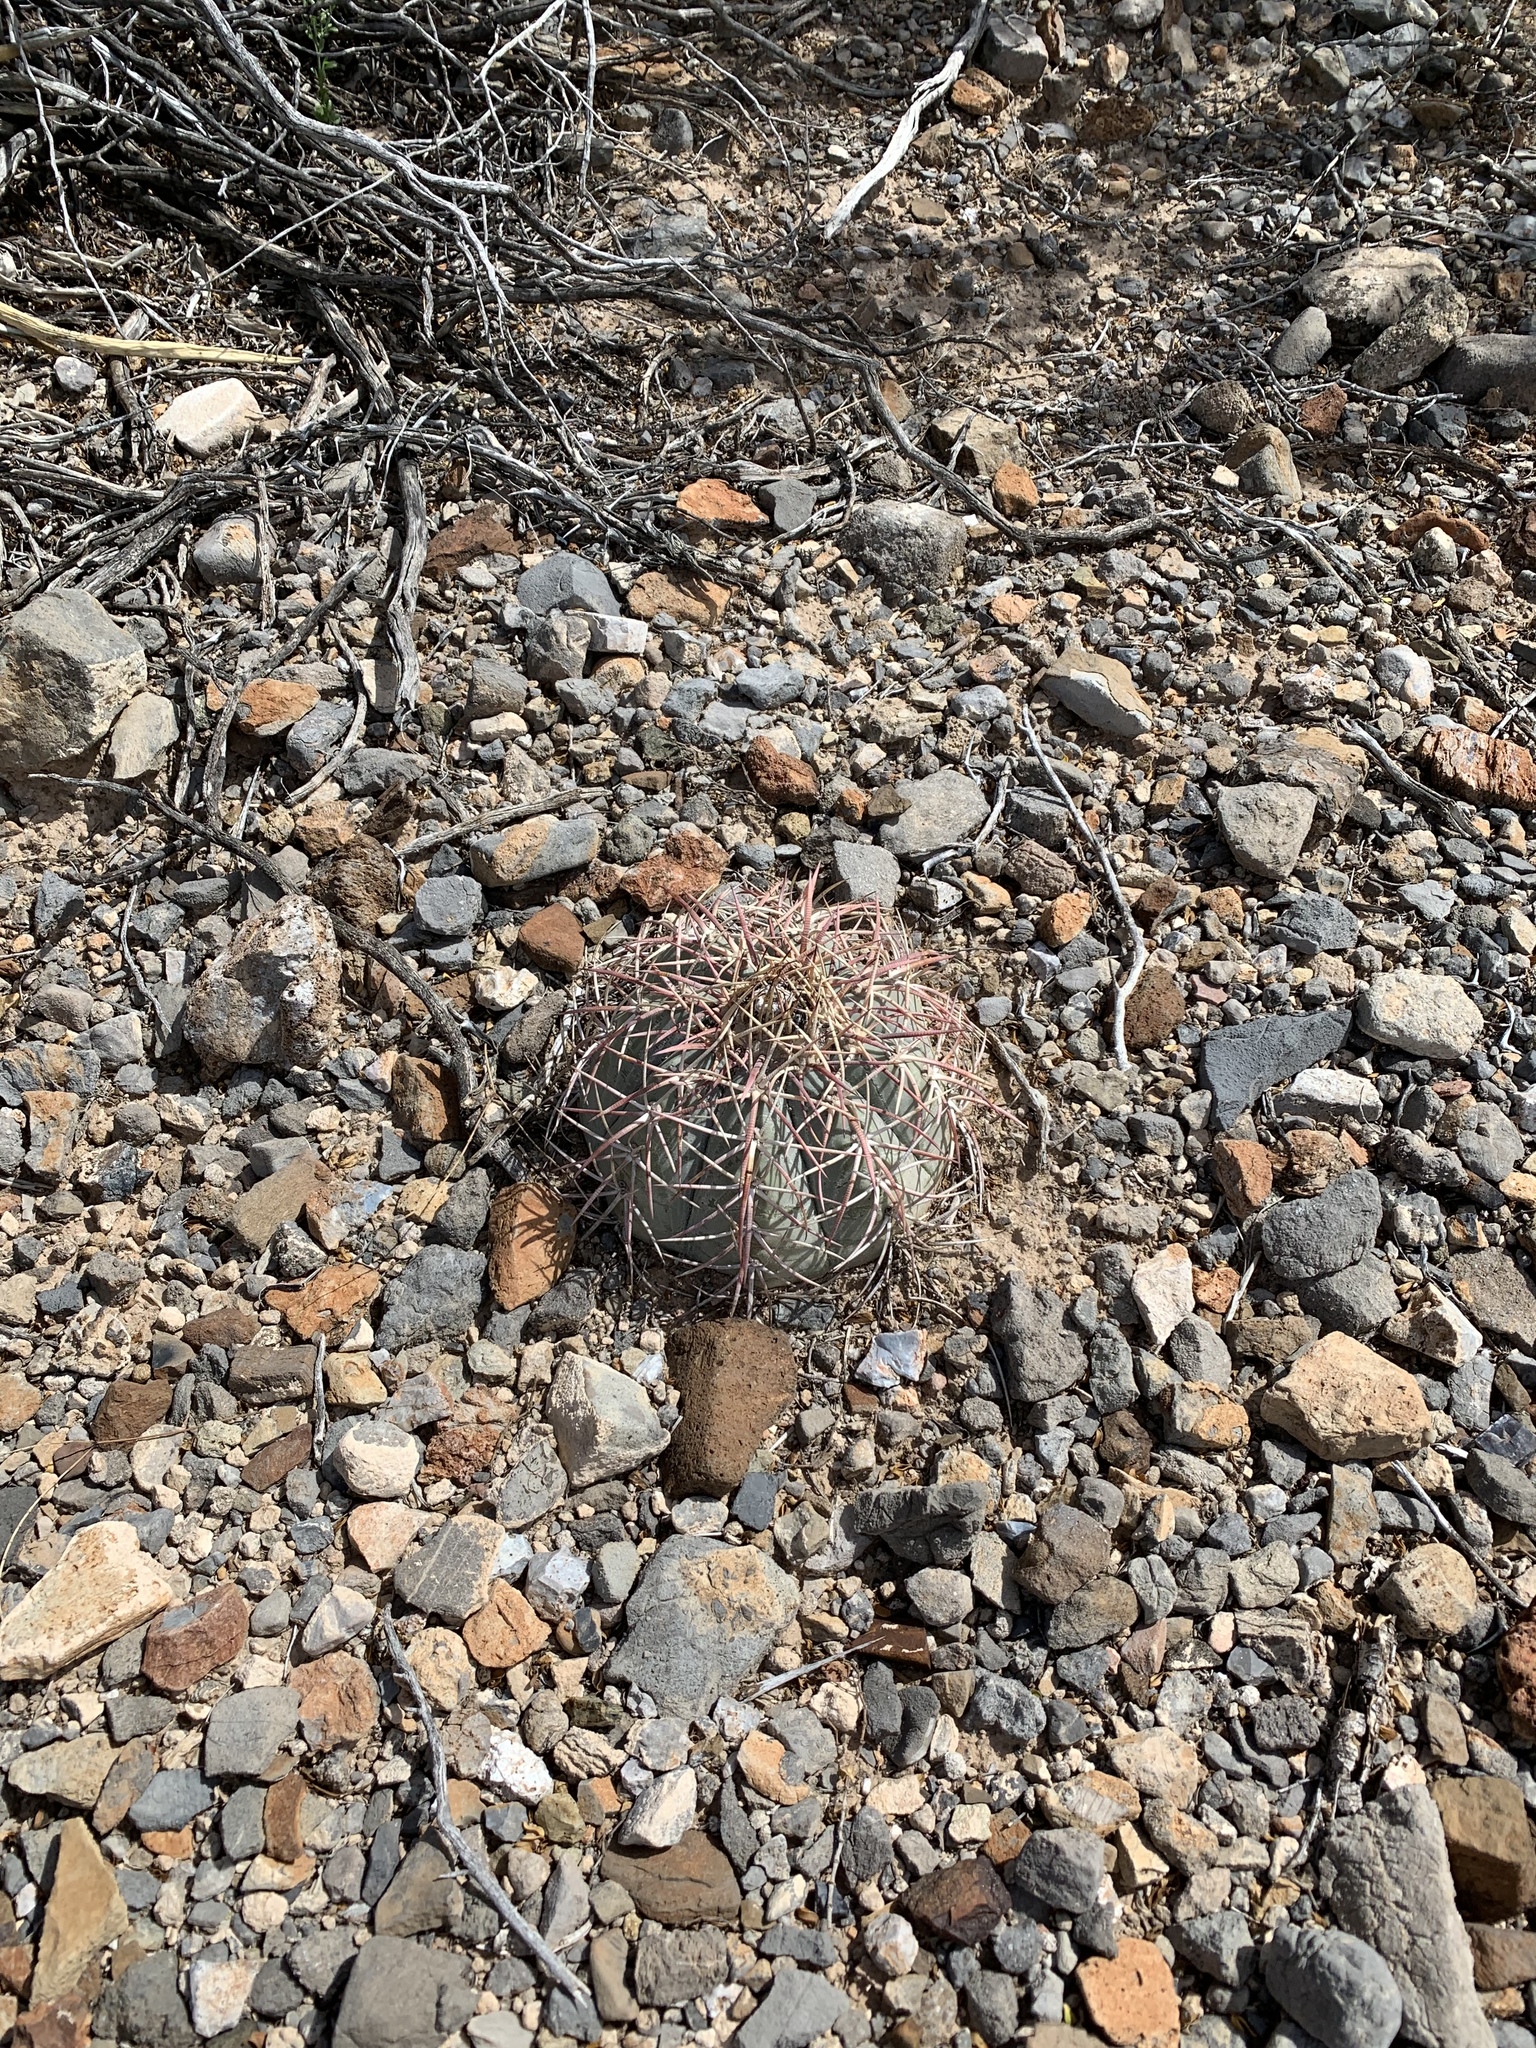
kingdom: Plantae
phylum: Tracheophyta
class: Magnoliopsida
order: Caryophyllales
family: Cactaceae
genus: Echinocactus
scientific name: Echinocactus horizonthalonius
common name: Devilshead
